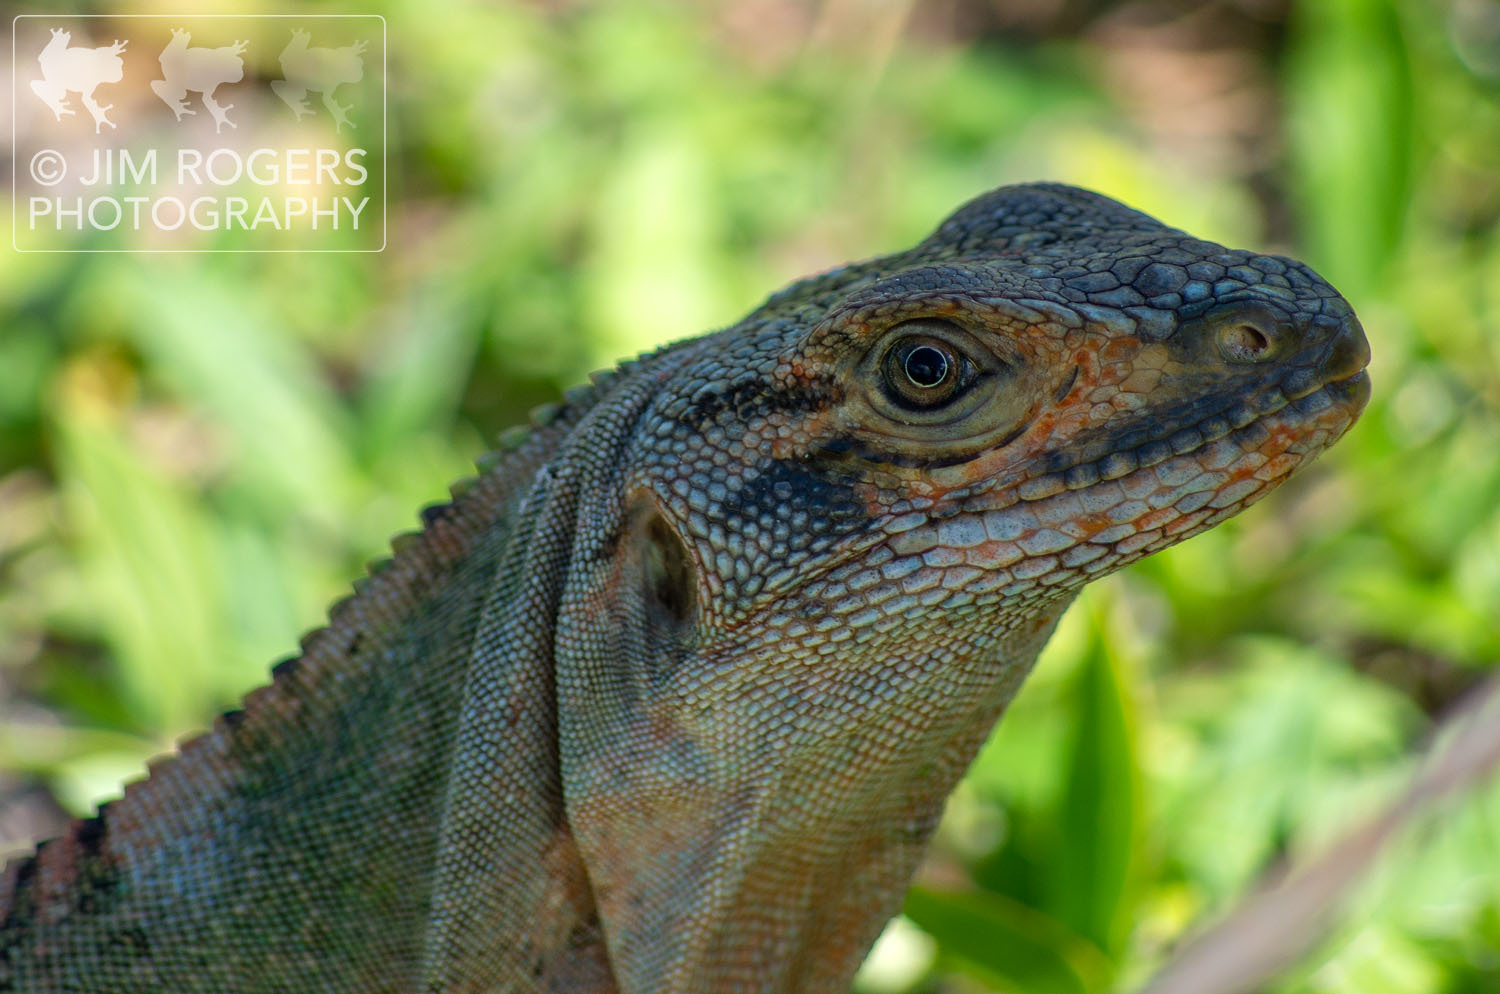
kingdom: Animalia
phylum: Chordata
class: Squamata
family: Iguanidae
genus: Ctenosaura
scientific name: Ctenosaura similis
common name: Black spiny-tailed iguana
